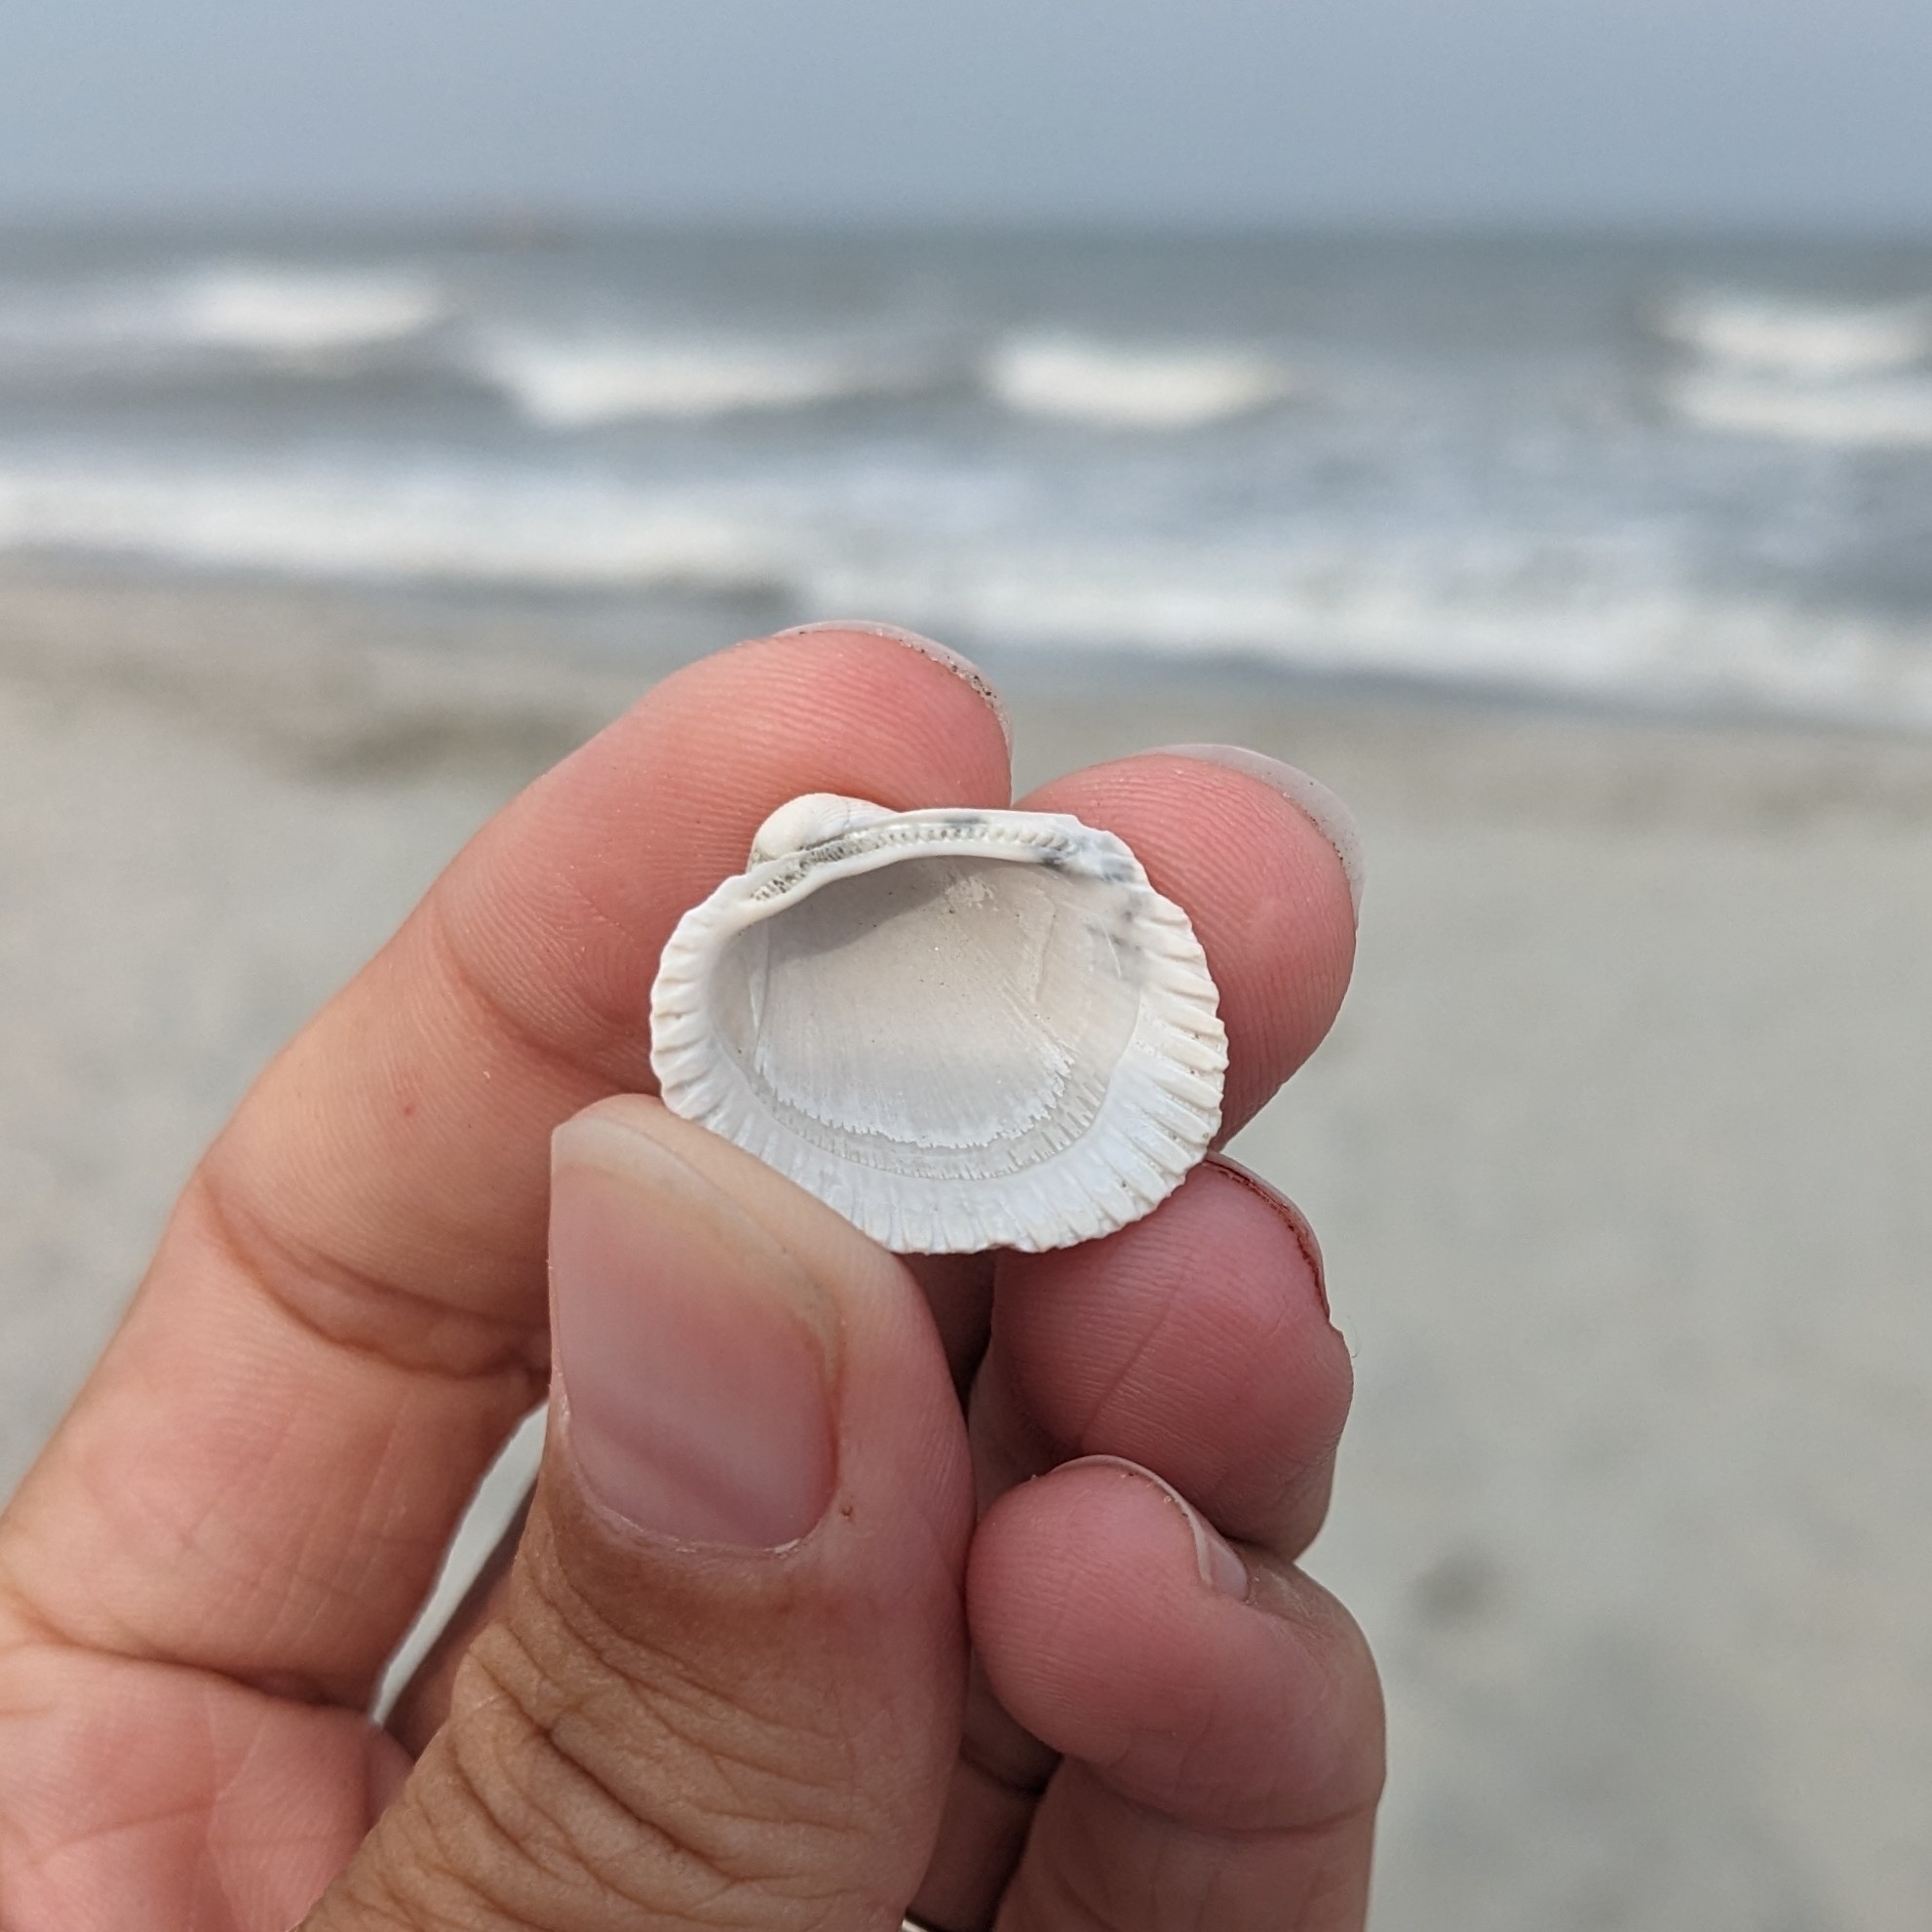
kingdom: Animalia
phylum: Mollusca
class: Bivalvia
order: Arcida
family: Arcidae
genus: Lunarca
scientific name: Lunarca ovalis
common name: Blood ark
